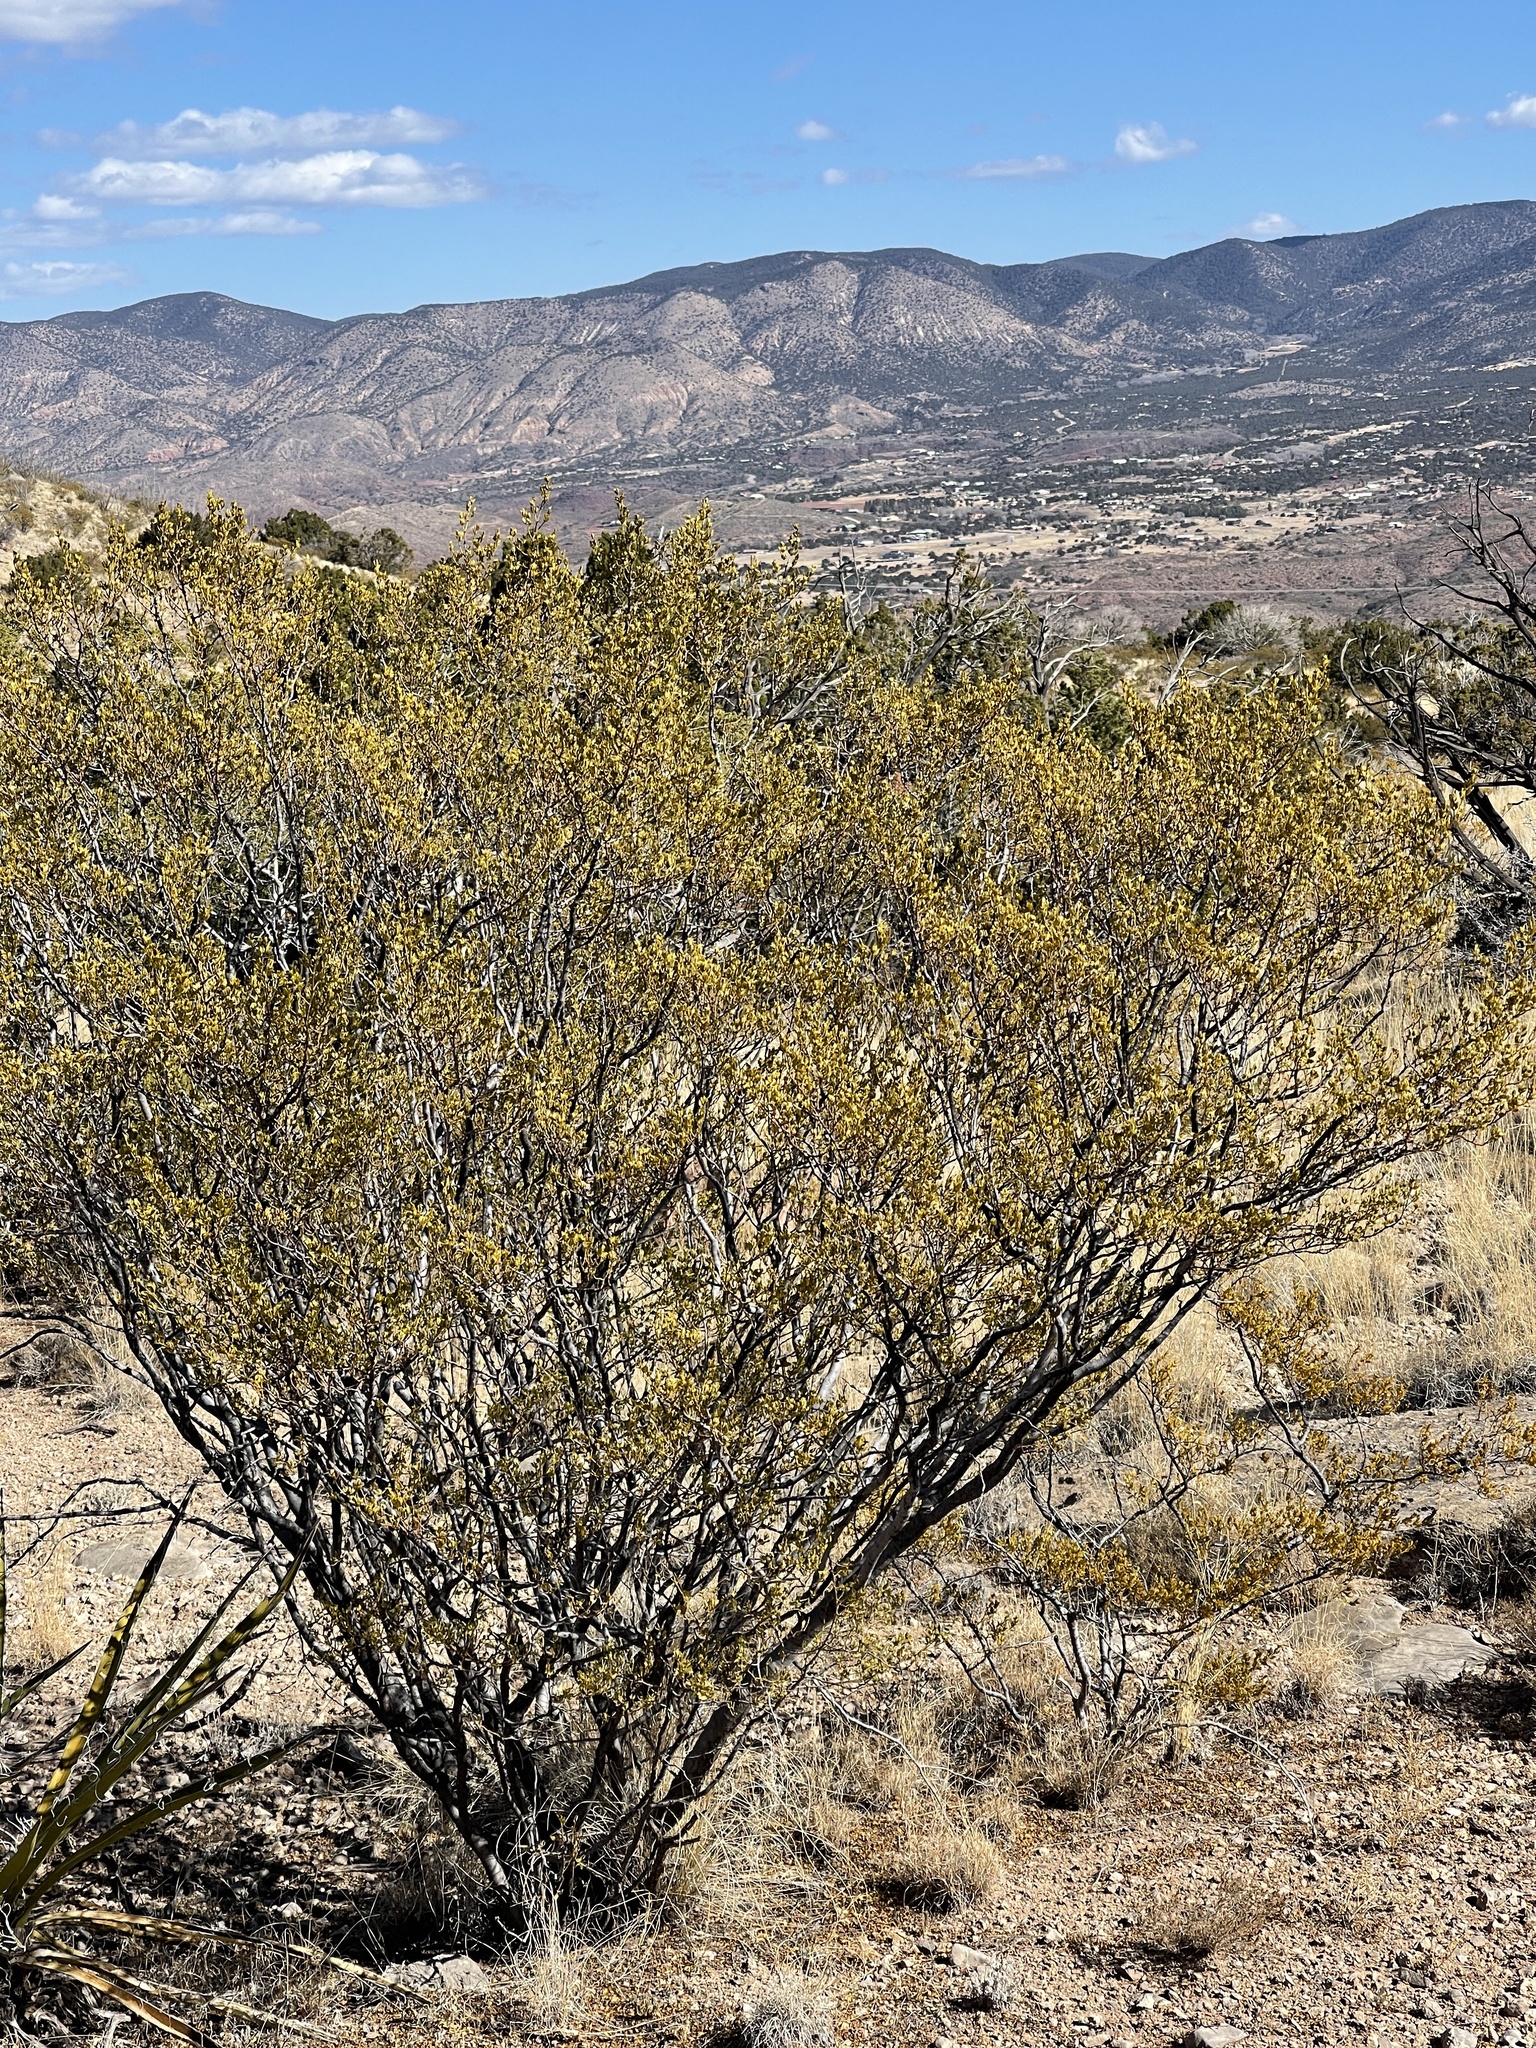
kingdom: Plantae
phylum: Tracheophyta
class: Magnoliopsida
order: Zygophyllales
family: Zygophyllaceae
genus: Larrea
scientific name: Larrea tridentata
